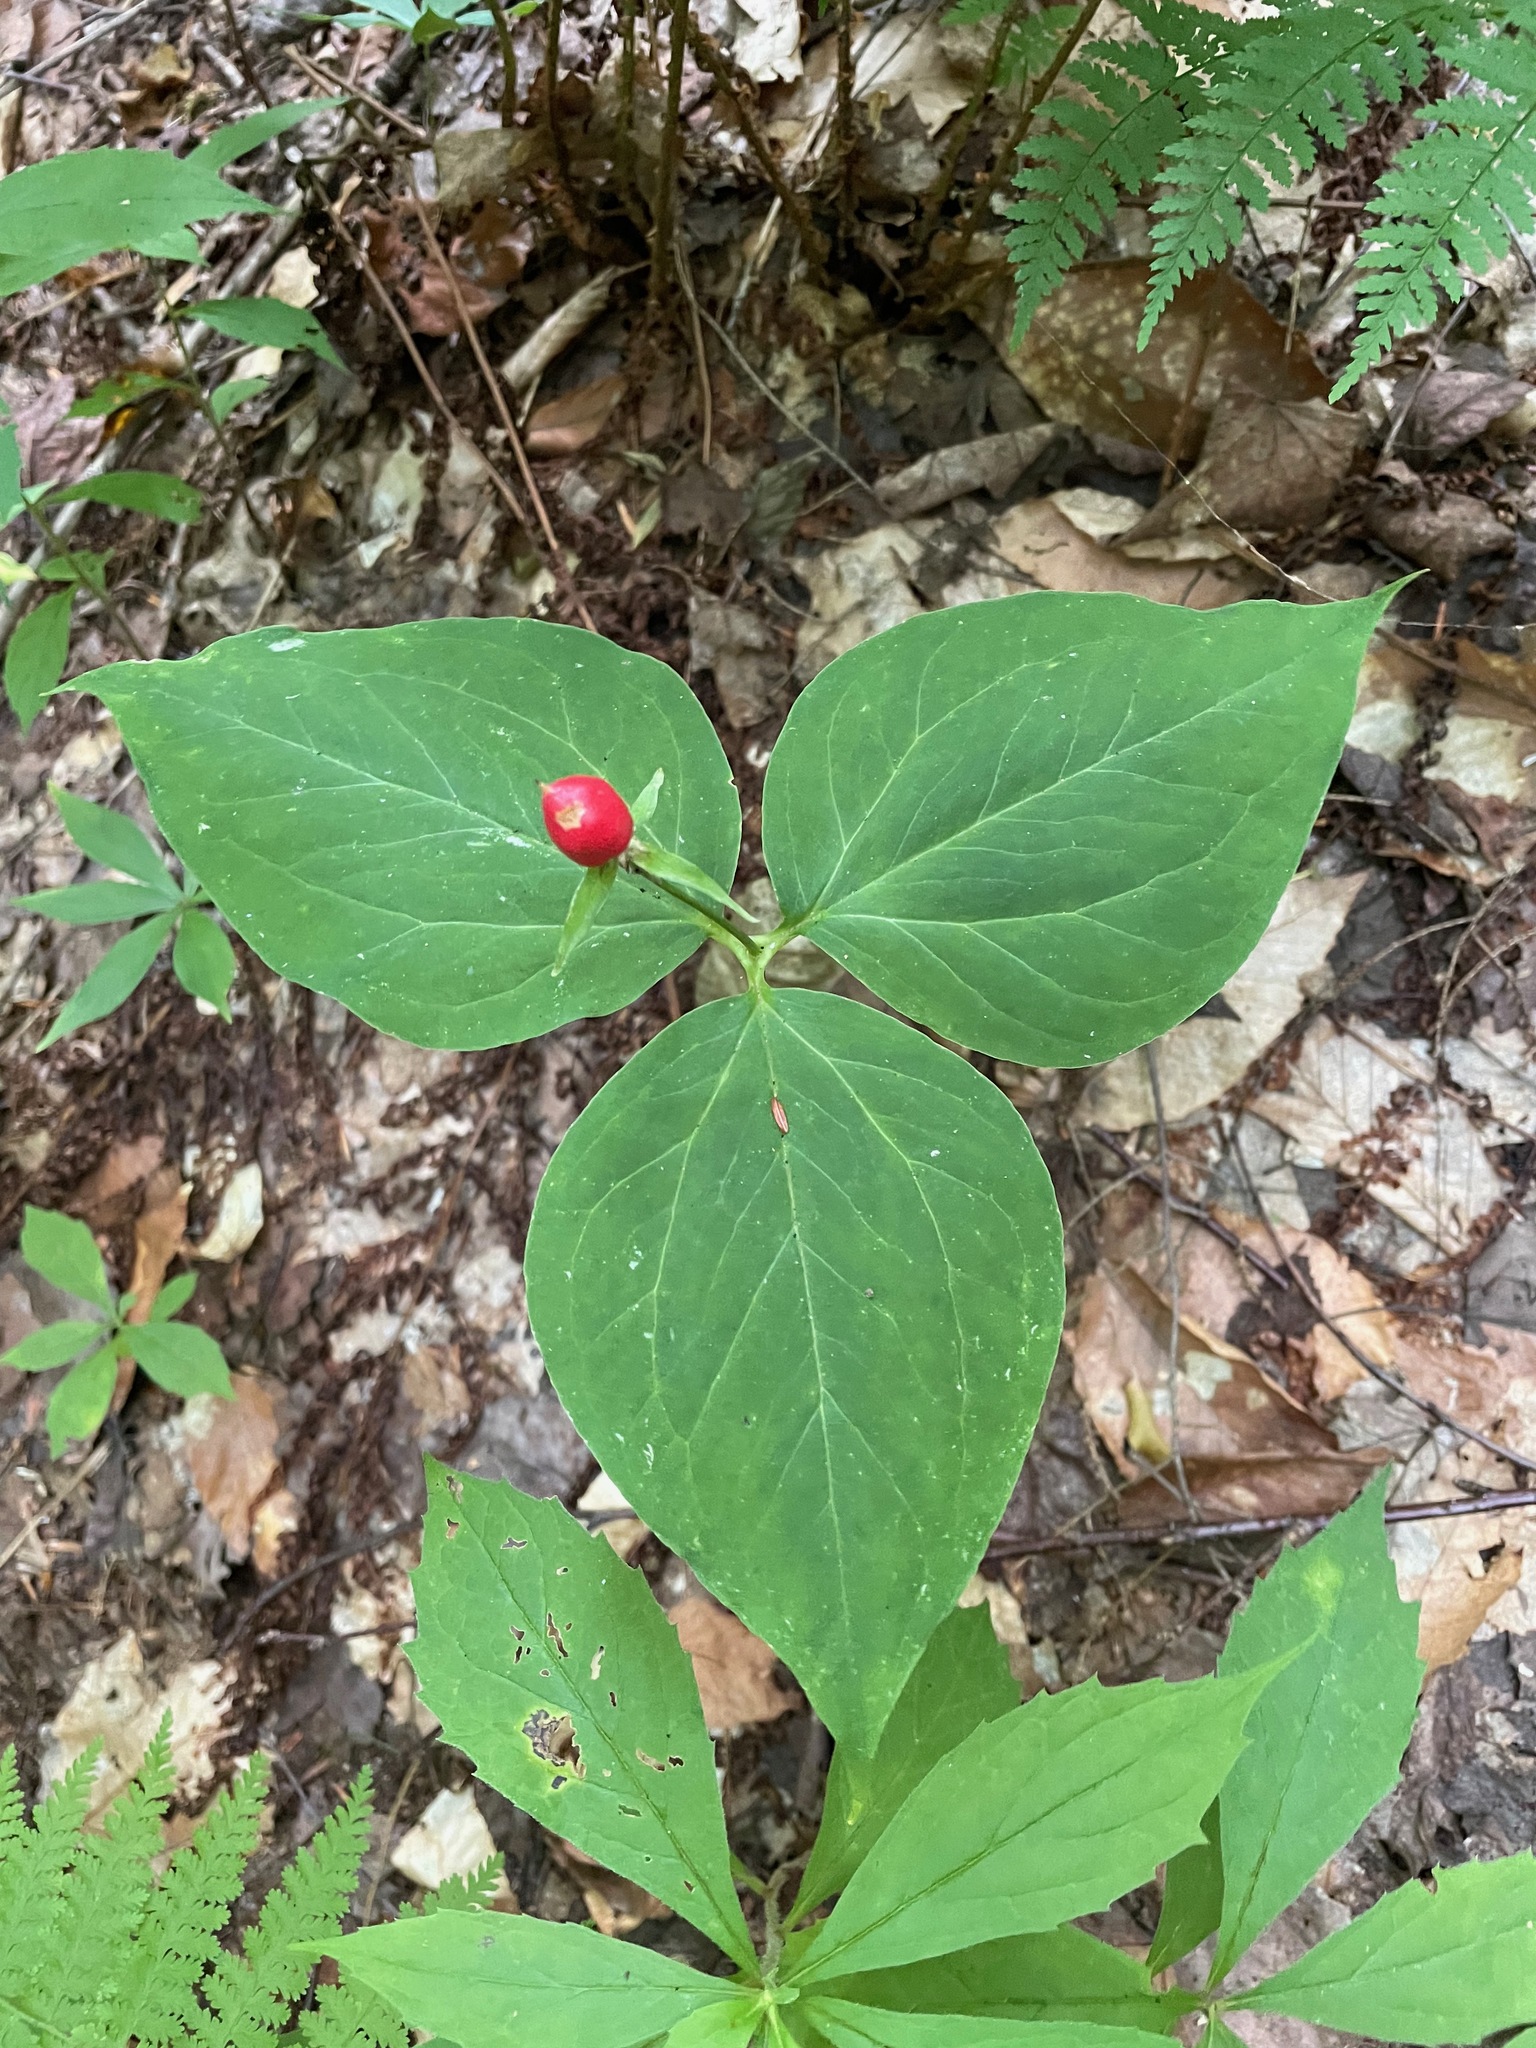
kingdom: Plantae
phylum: Tracheophyta
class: Liliopsida
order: Liliales
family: Melanthiaceae
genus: Trillium
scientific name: Trillium undulatum
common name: Paint trillium
